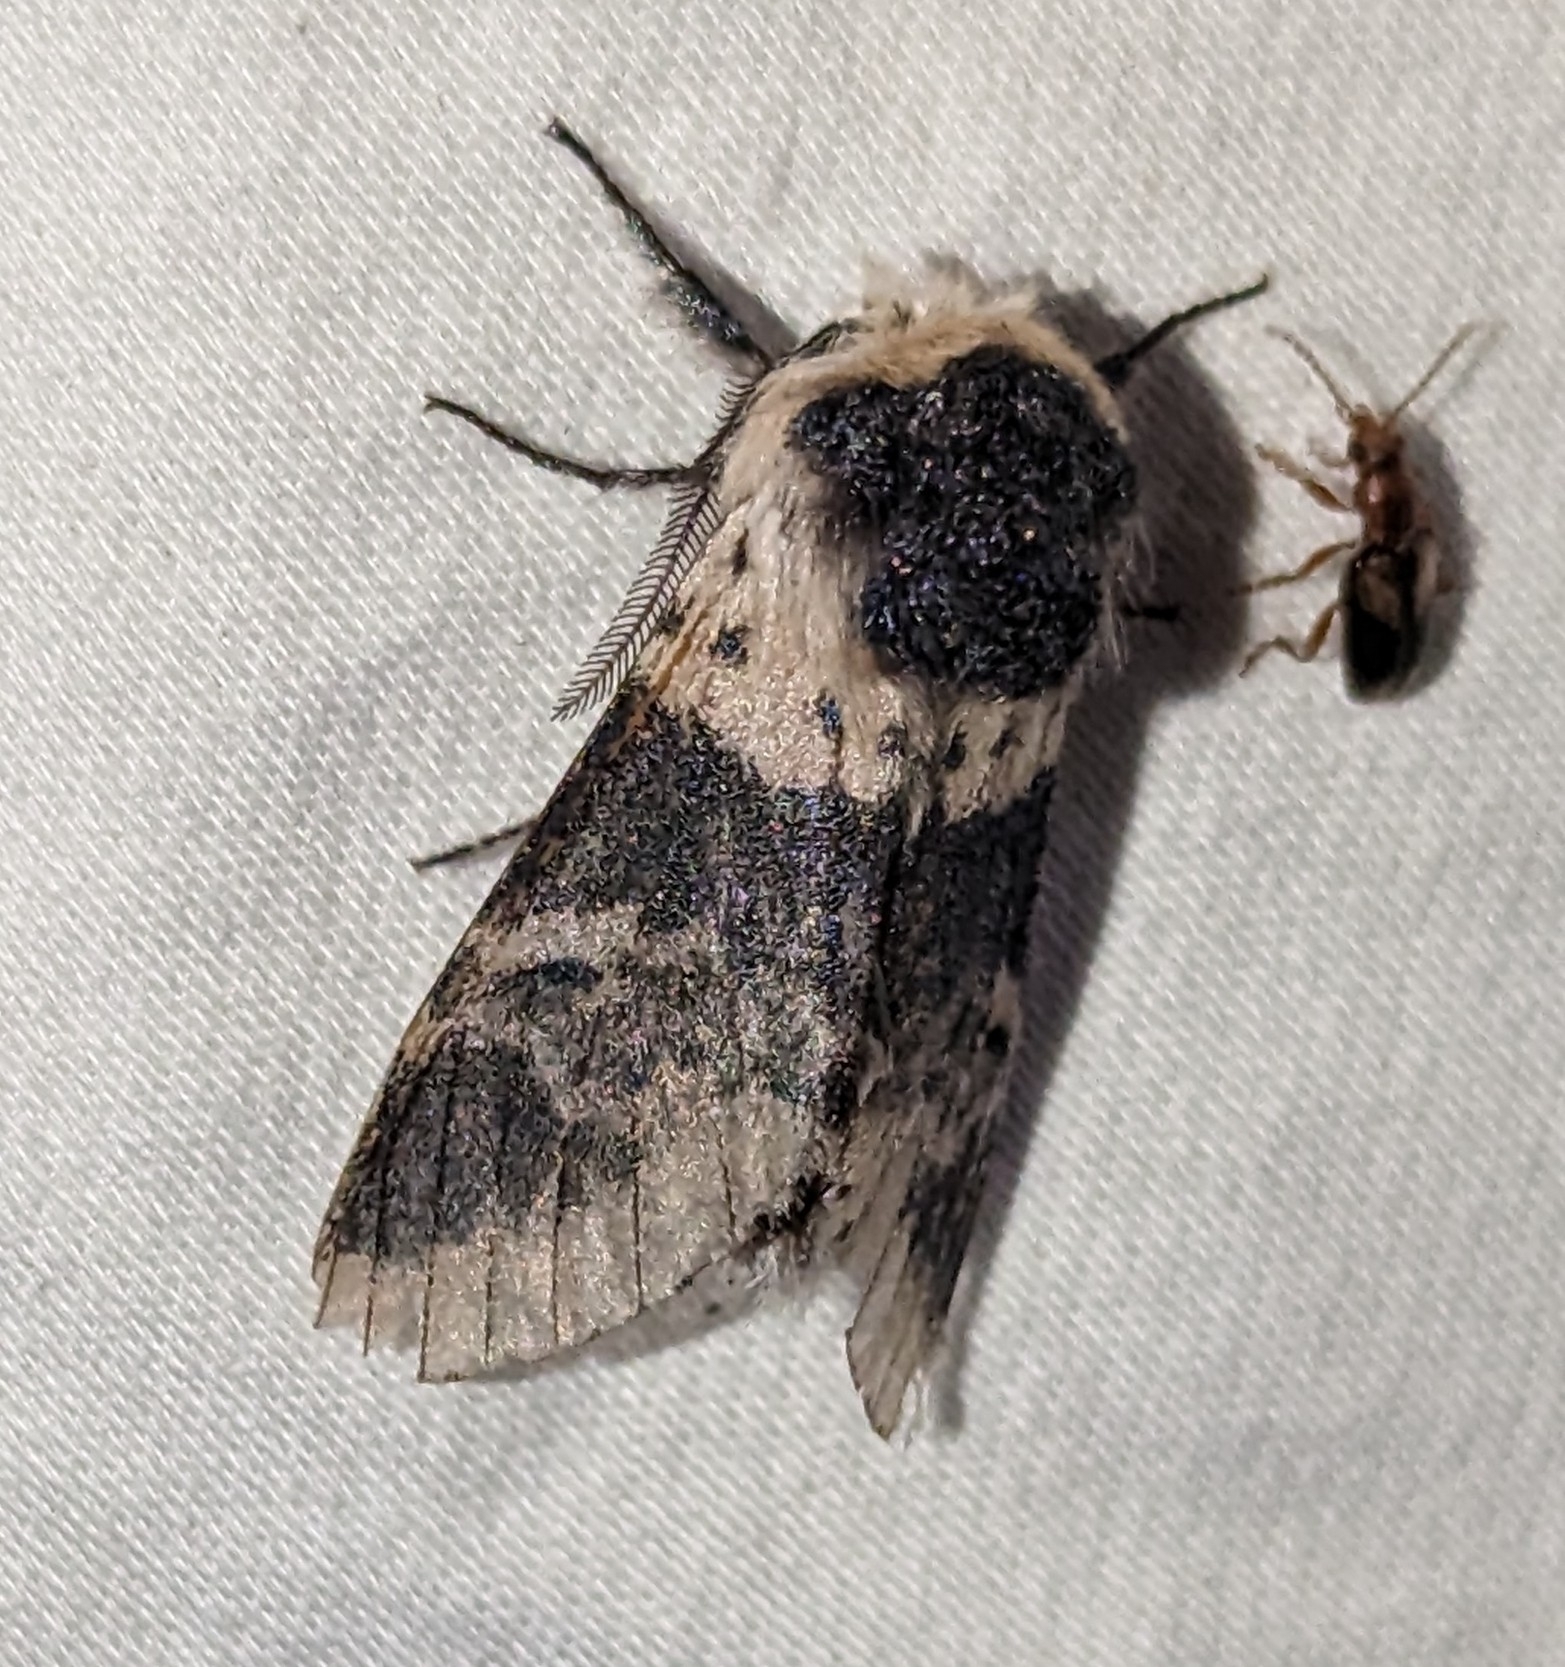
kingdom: Animalia
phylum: Arthropoda
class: Insecta
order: Lepidoptera
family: Notodontidae
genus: Furcula
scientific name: Furcula modesta
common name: Modest furcula moth
